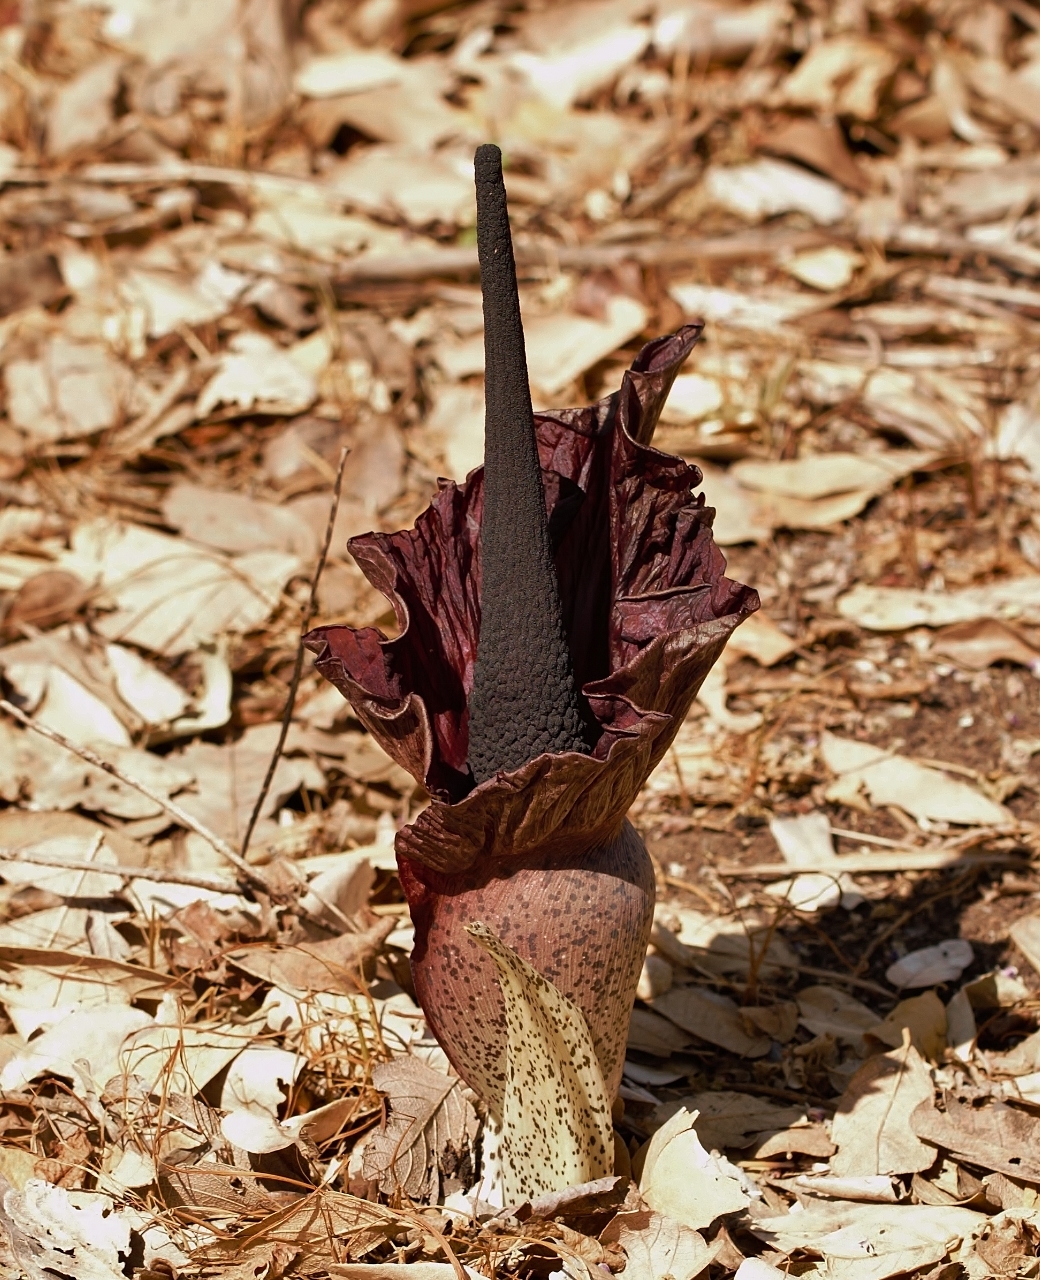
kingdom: Plantae
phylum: Tracheophyta
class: Liliopsida
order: Alismatales
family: Araceae
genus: Amorphophallus
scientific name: Amorphophallus mossambicensis
